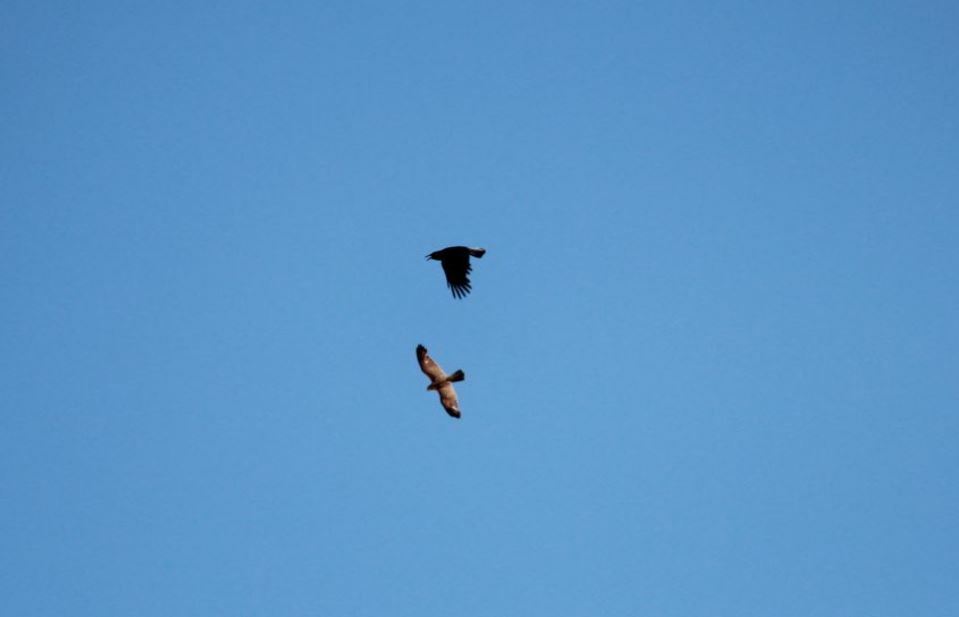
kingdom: Animalia
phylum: Chordata
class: Aves
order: Falconiformes
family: Falconidae
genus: Falco
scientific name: Falco rupicolus
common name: Rock kestrel
